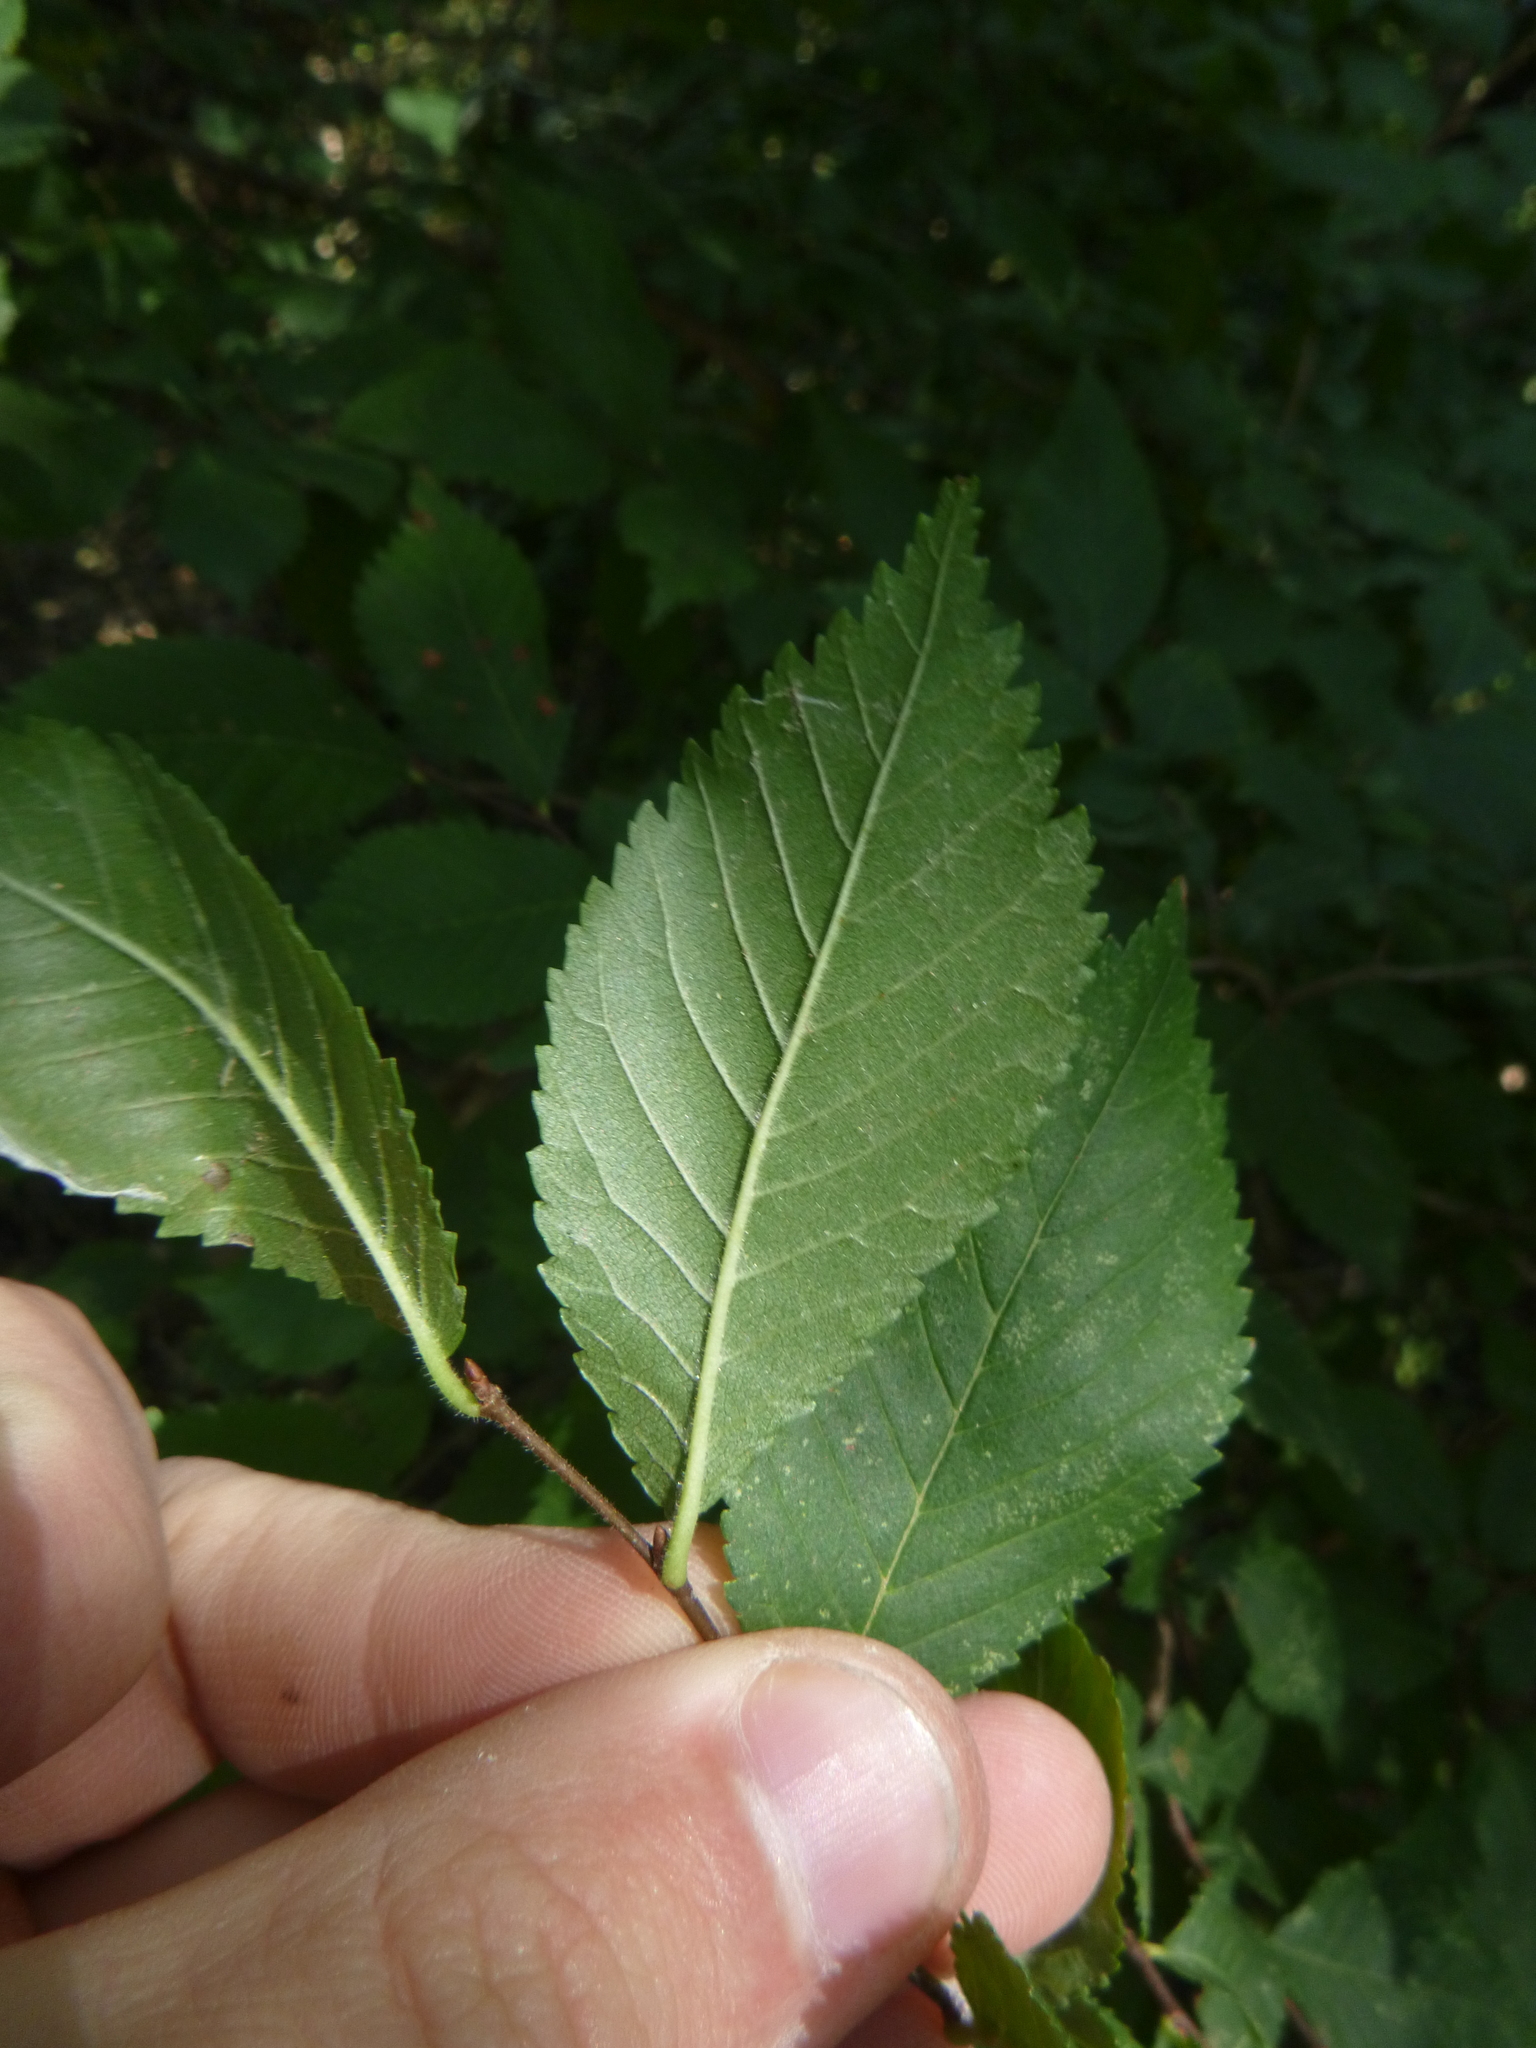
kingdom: Plantae
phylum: Tracheophyta
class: Magnoliopsida
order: Rosales
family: Ulmaceae
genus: Ulmus
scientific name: Ulmus minor
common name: Small-leaved elm
